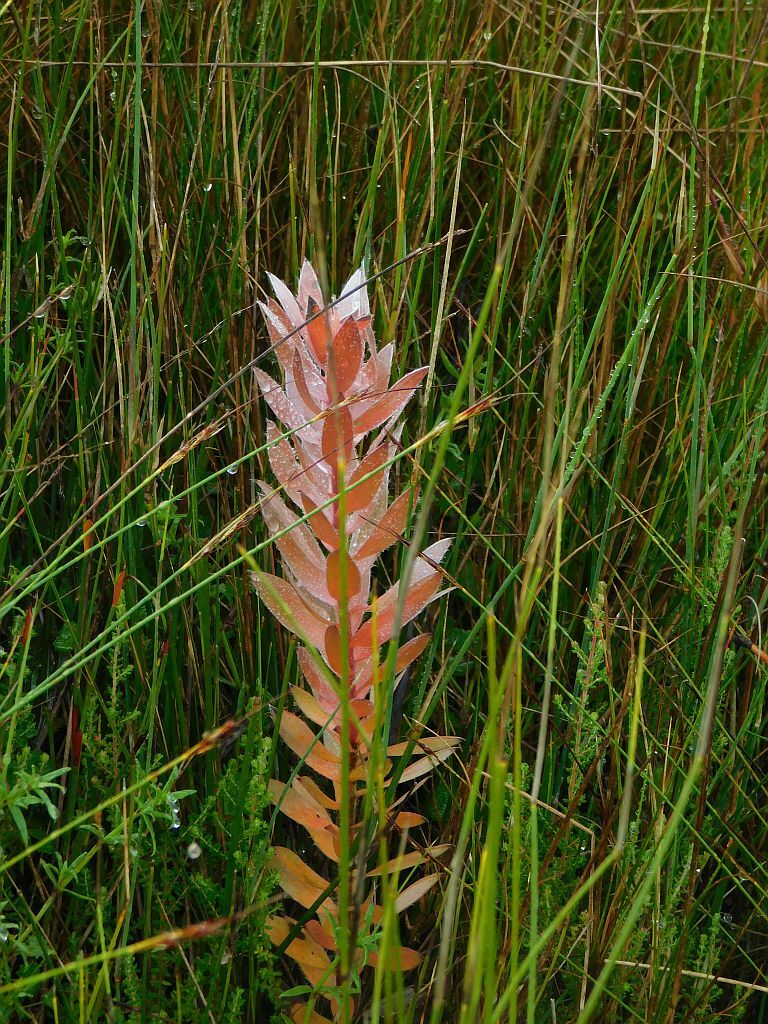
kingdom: Plantae
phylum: Tracheophyta
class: Magnoliopsida
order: Proteales
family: Proteaceae
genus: Mimetes
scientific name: Mimetes argenteus
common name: Silver pagoda
